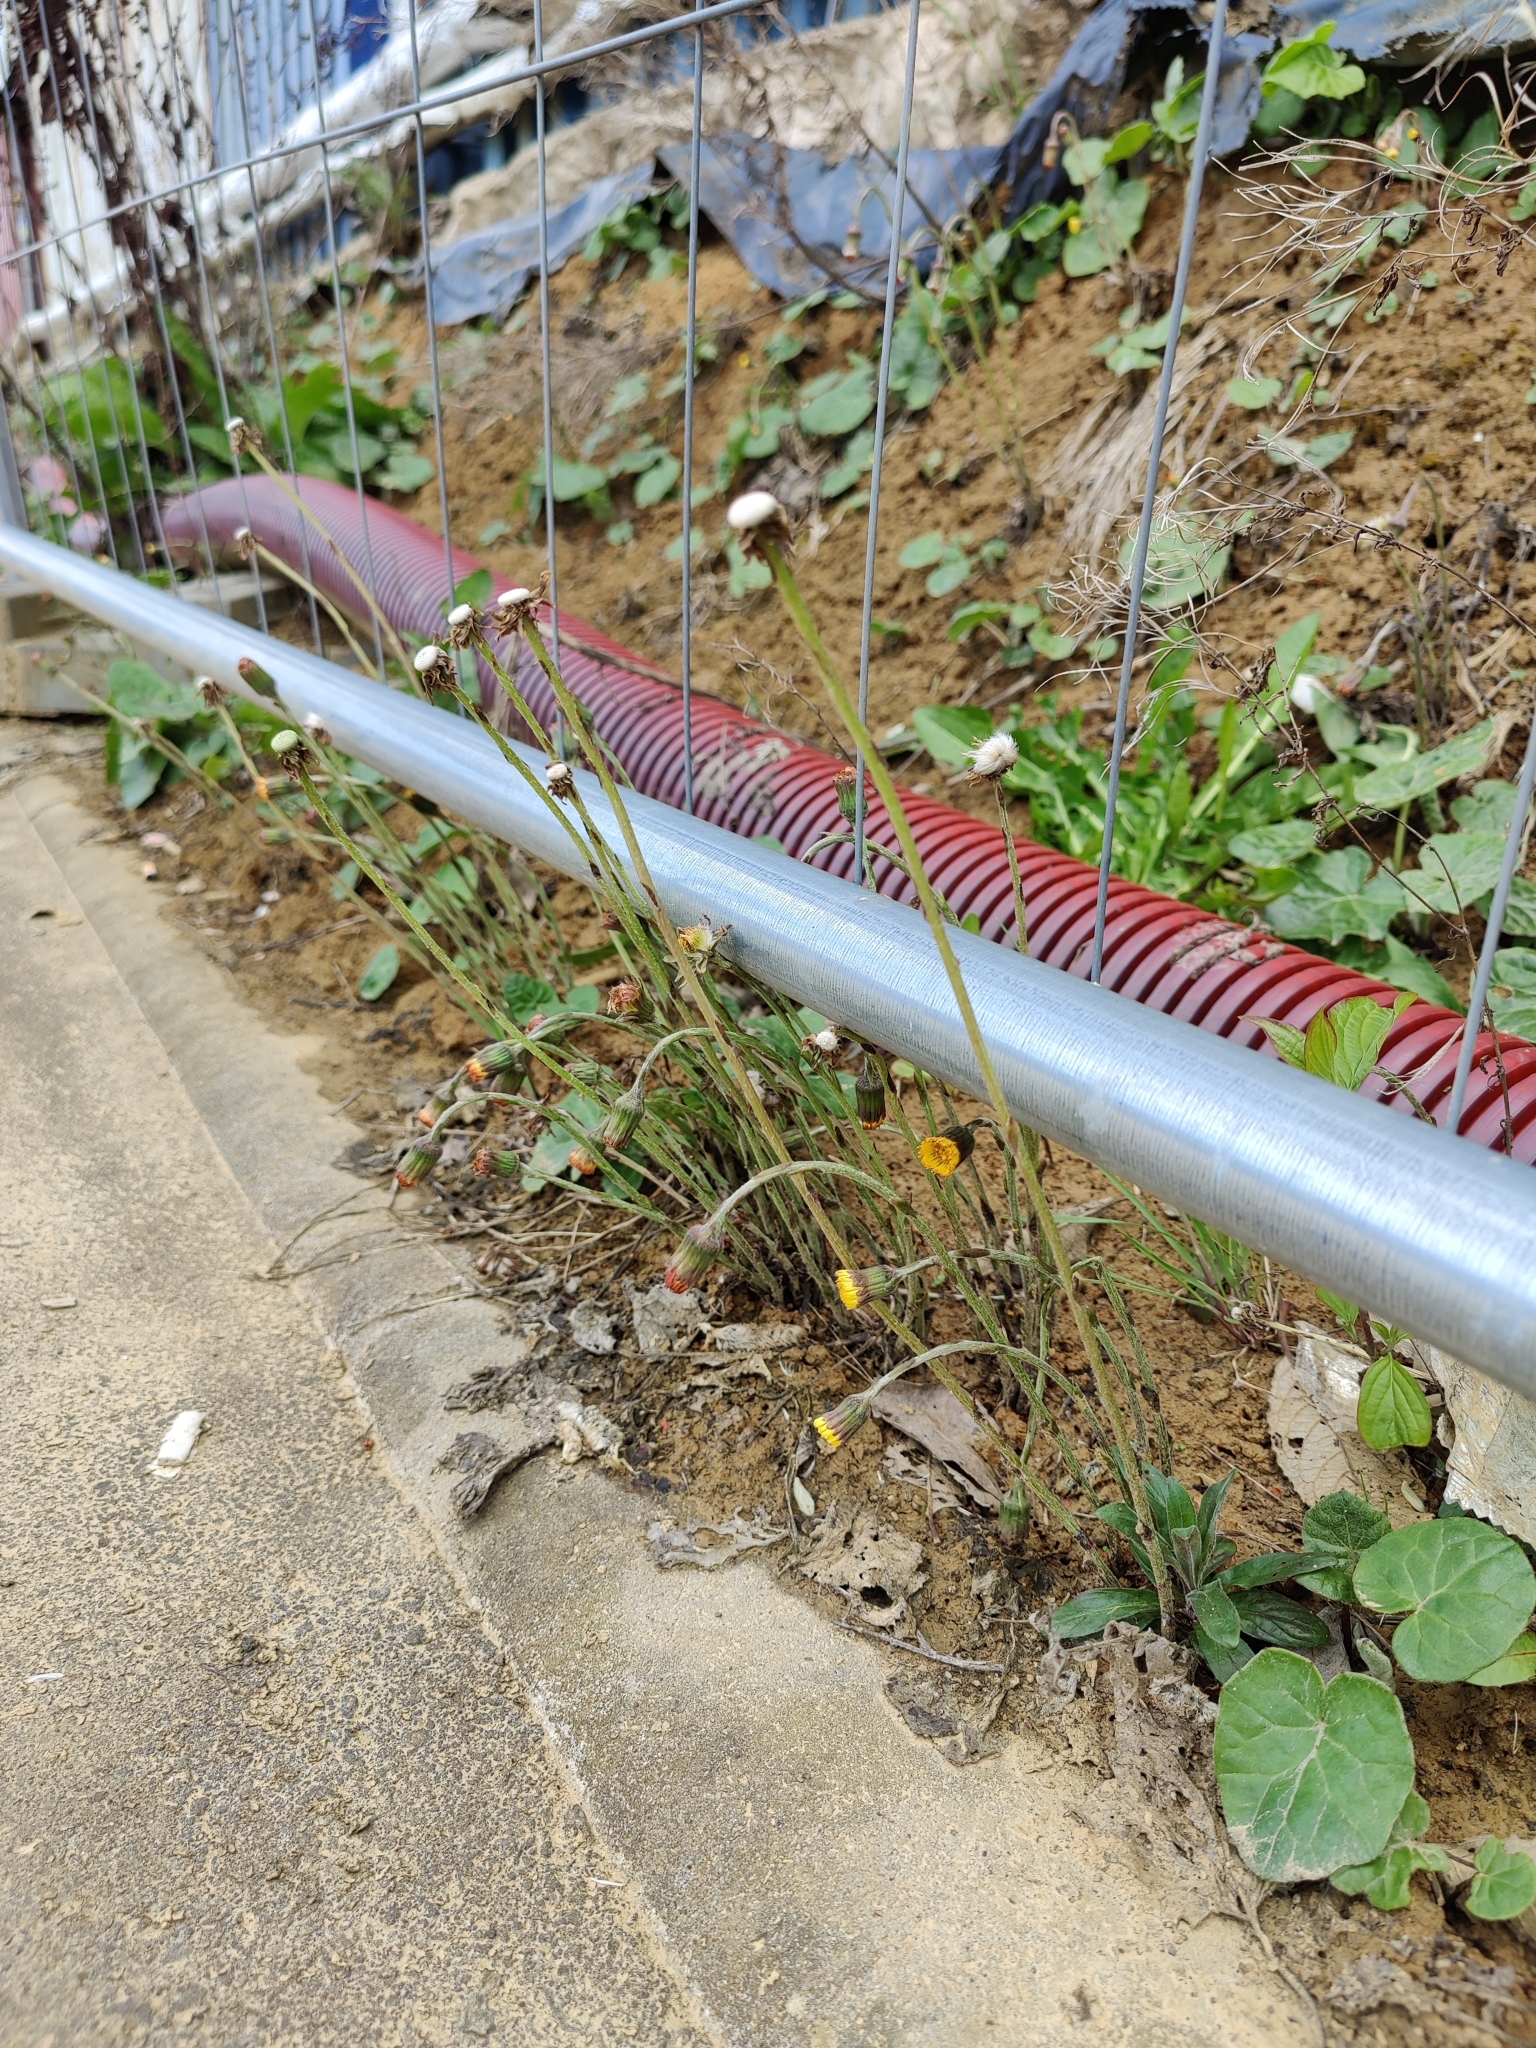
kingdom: Plantae
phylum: Tracheophyta
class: Magnoliopsida
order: Asterales
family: Asteraceae
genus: Tussilago
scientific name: Tussilago farfara
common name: Coltsfoot
